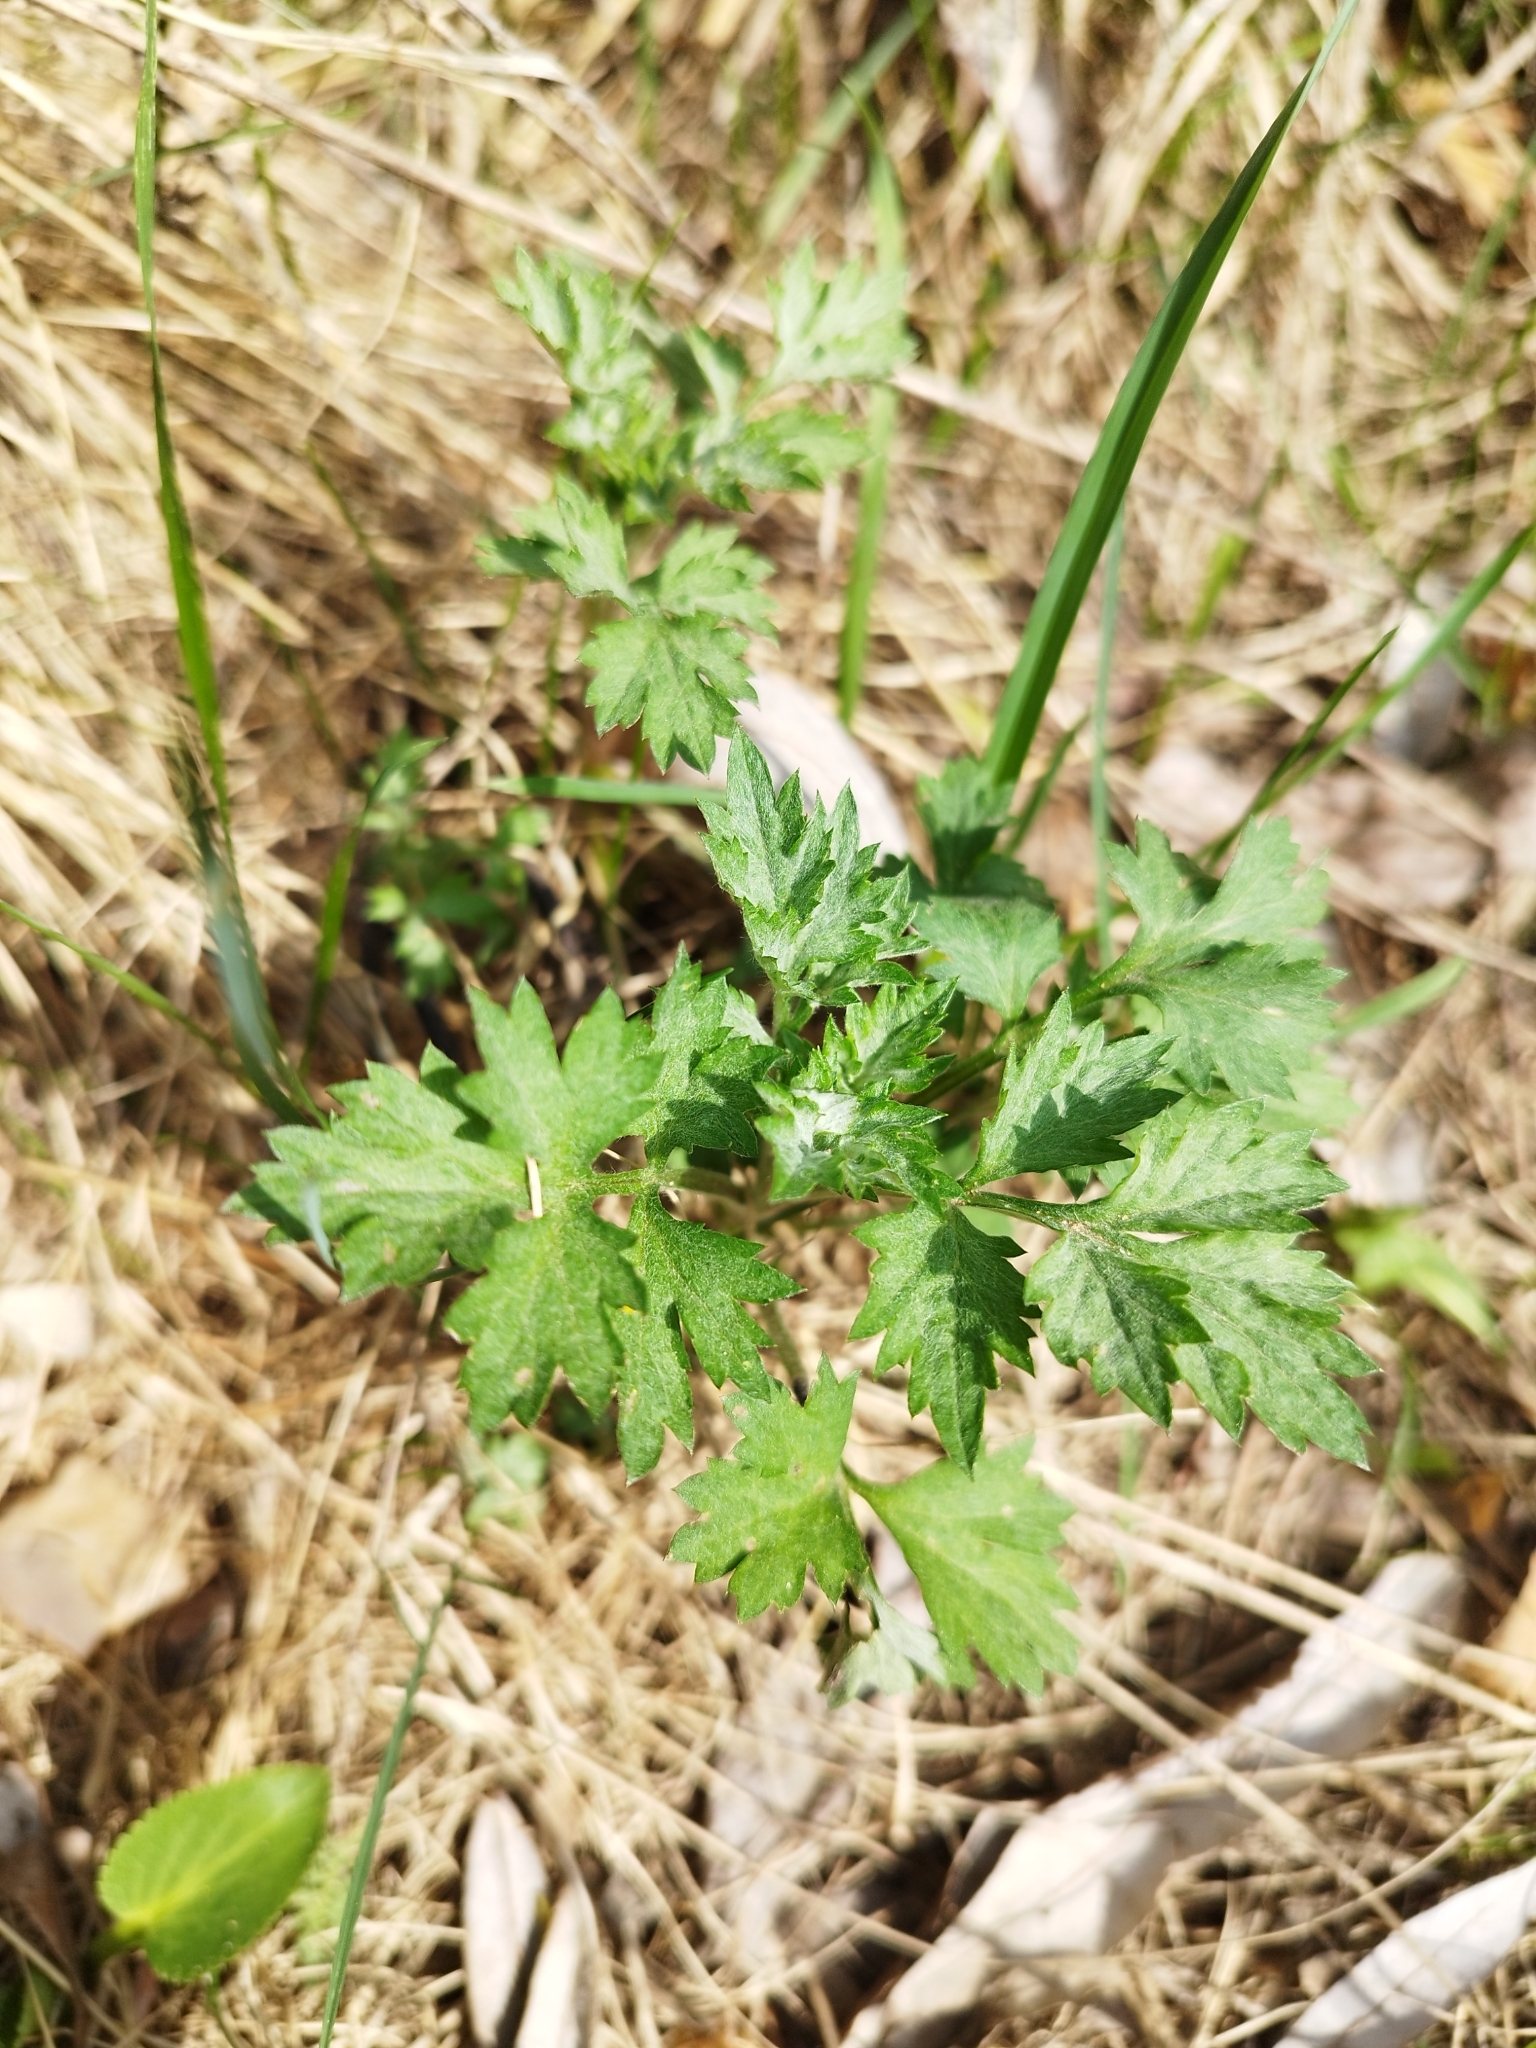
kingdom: Plantae
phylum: Tracheophyta
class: Magnoliopsida
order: Asterales
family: Asteraceae
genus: Artemisia
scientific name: Artemisia vulgaris
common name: Mugwort
